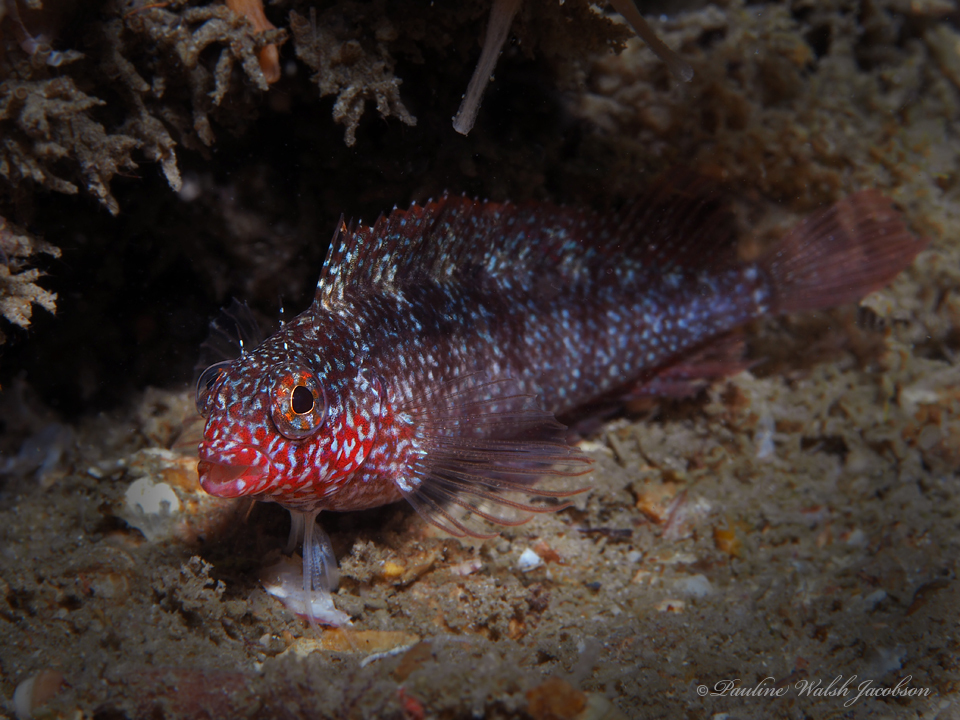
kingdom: Animalia
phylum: Chordata
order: Perciformes
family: Labrisomidae
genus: Malacoctenus
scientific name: Malacoctenus macropus
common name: Rosy blenny
